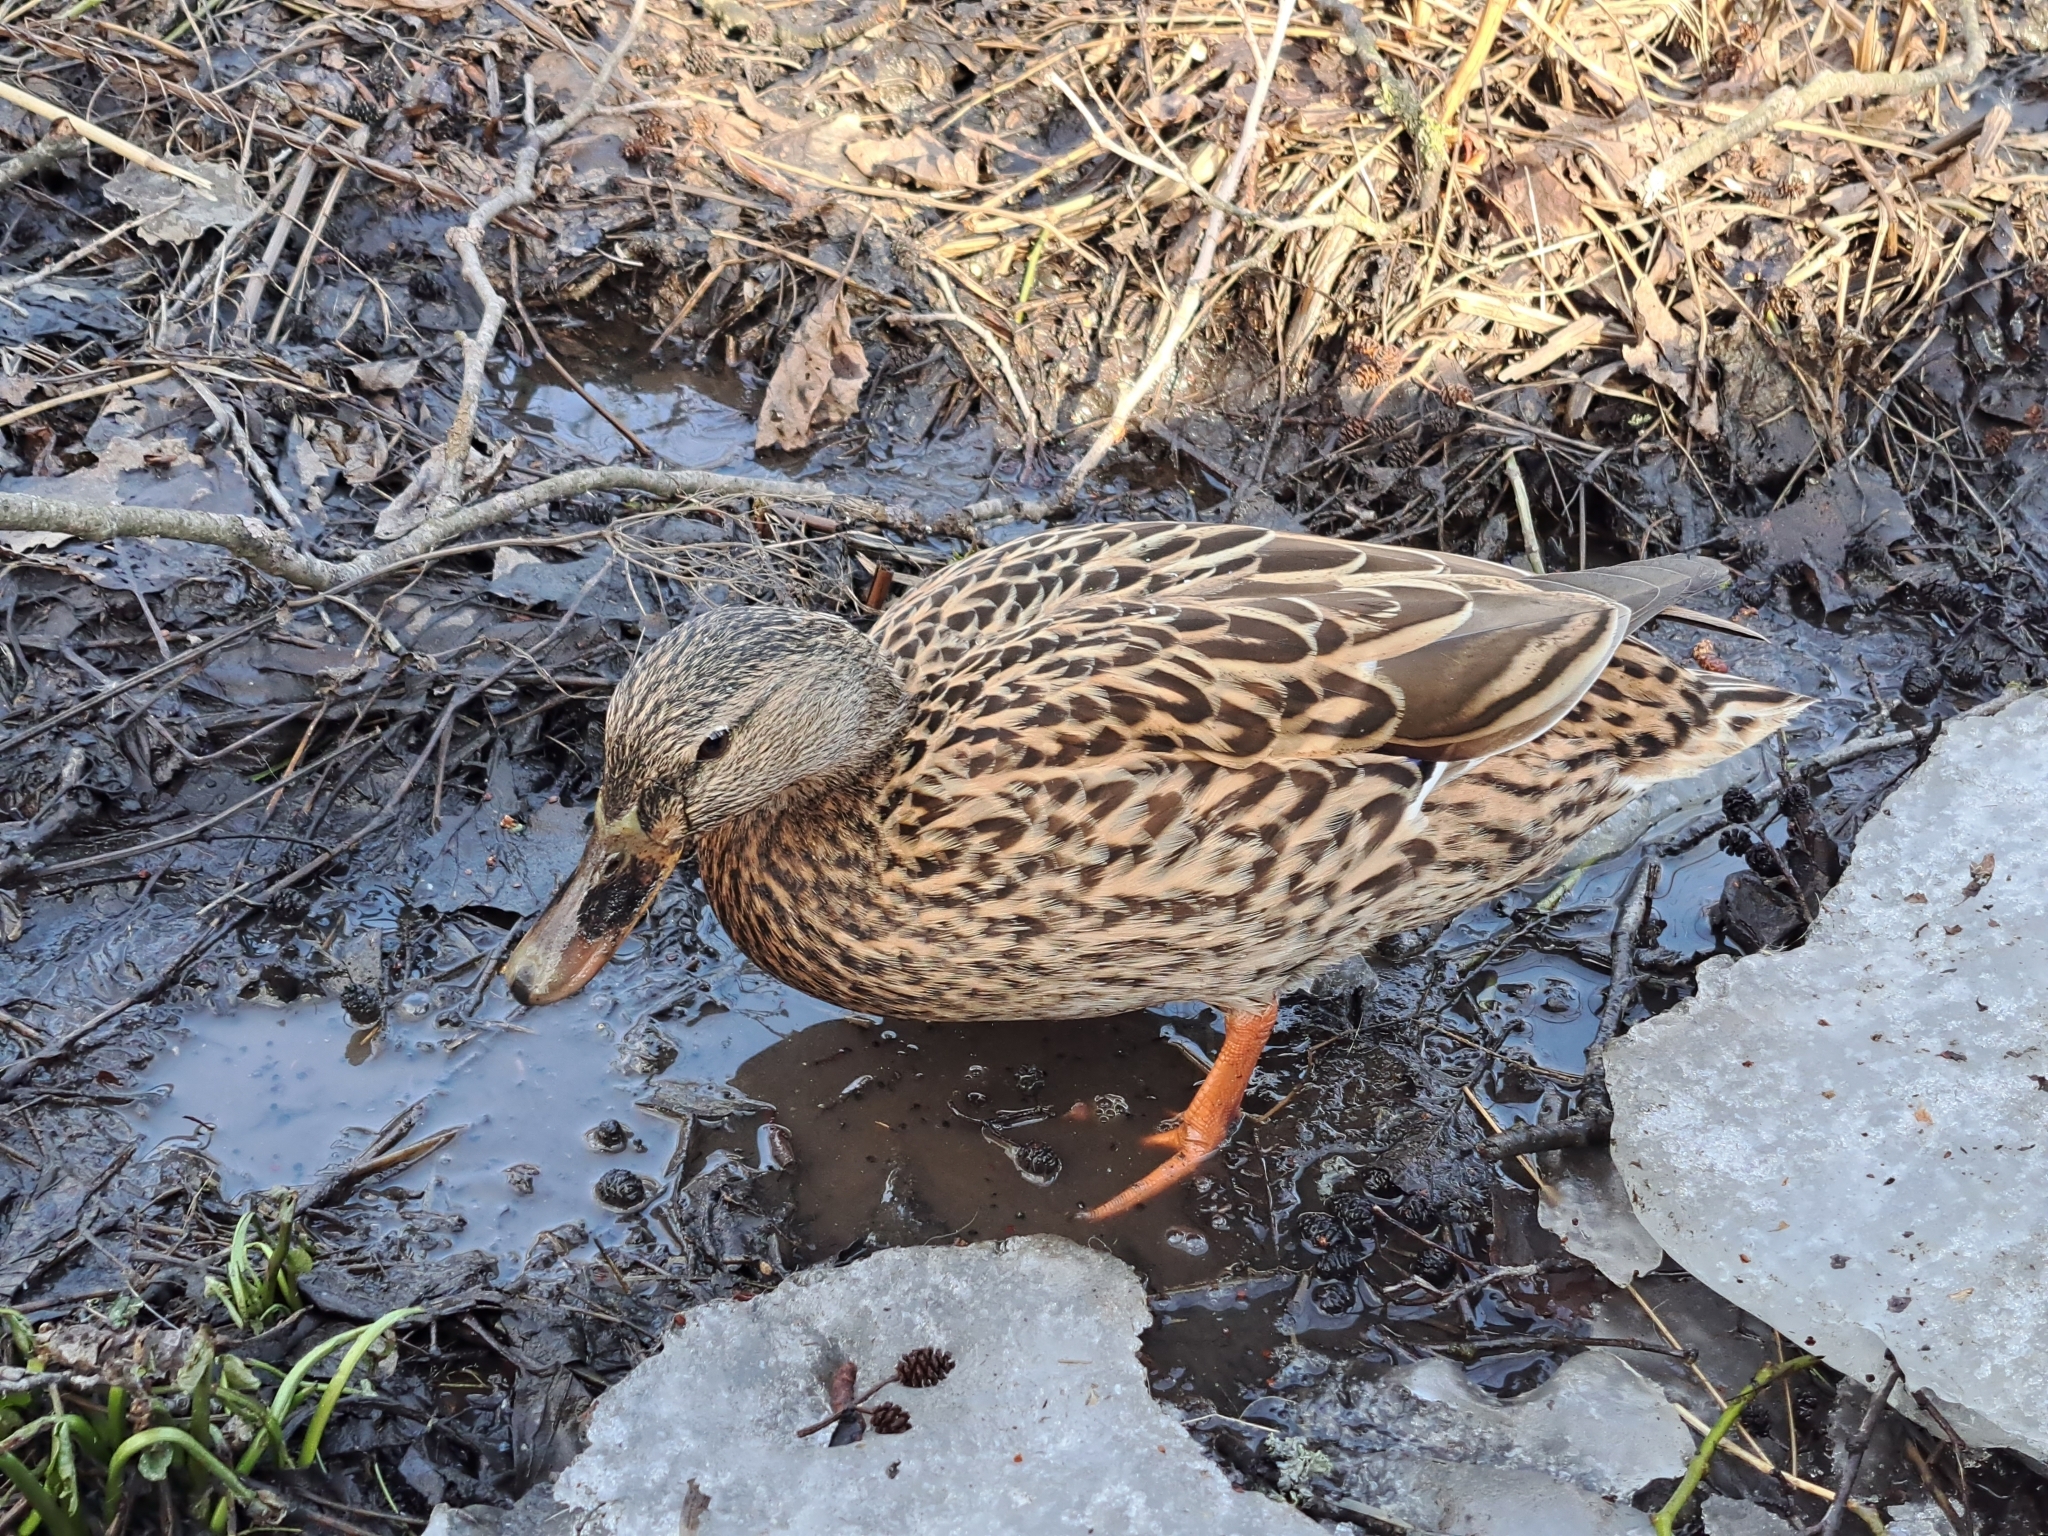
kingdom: Animalia
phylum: Chordata
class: Aves
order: Anseriformes
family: Anatidae
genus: Anas
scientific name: Anas platyrhynchos
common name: Mallard
